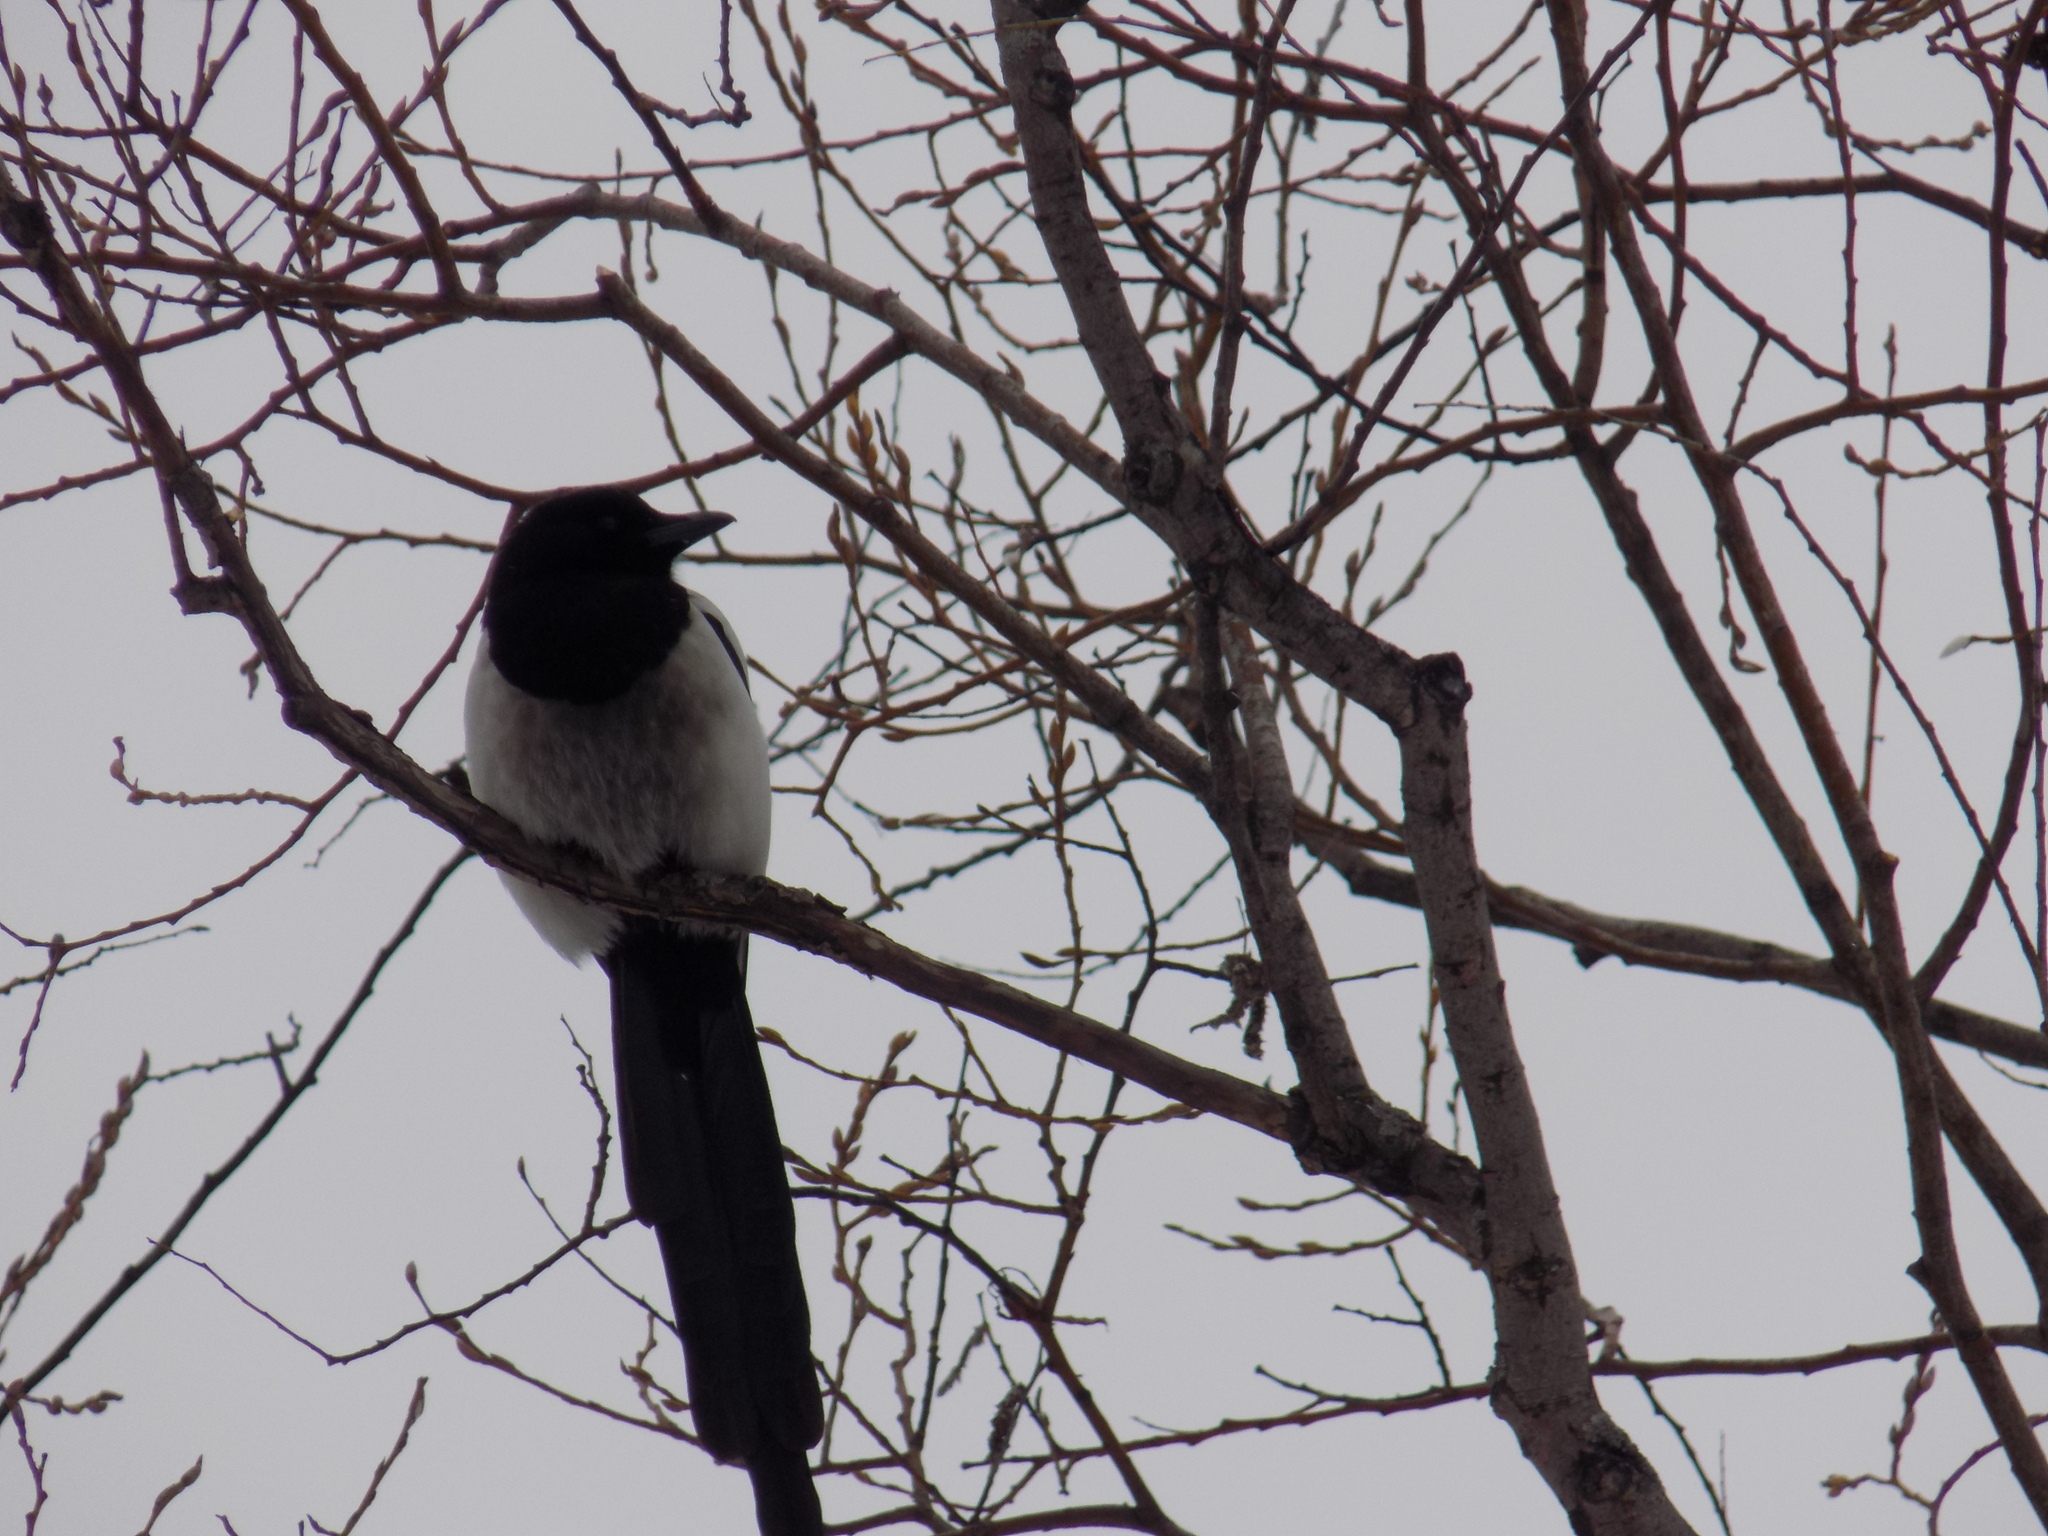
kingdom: Animalia
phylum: Chordata
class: Aves
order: Passeriformes
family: Corvidae
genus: Pica
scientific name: Pica pica
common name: Eurasian magpie
